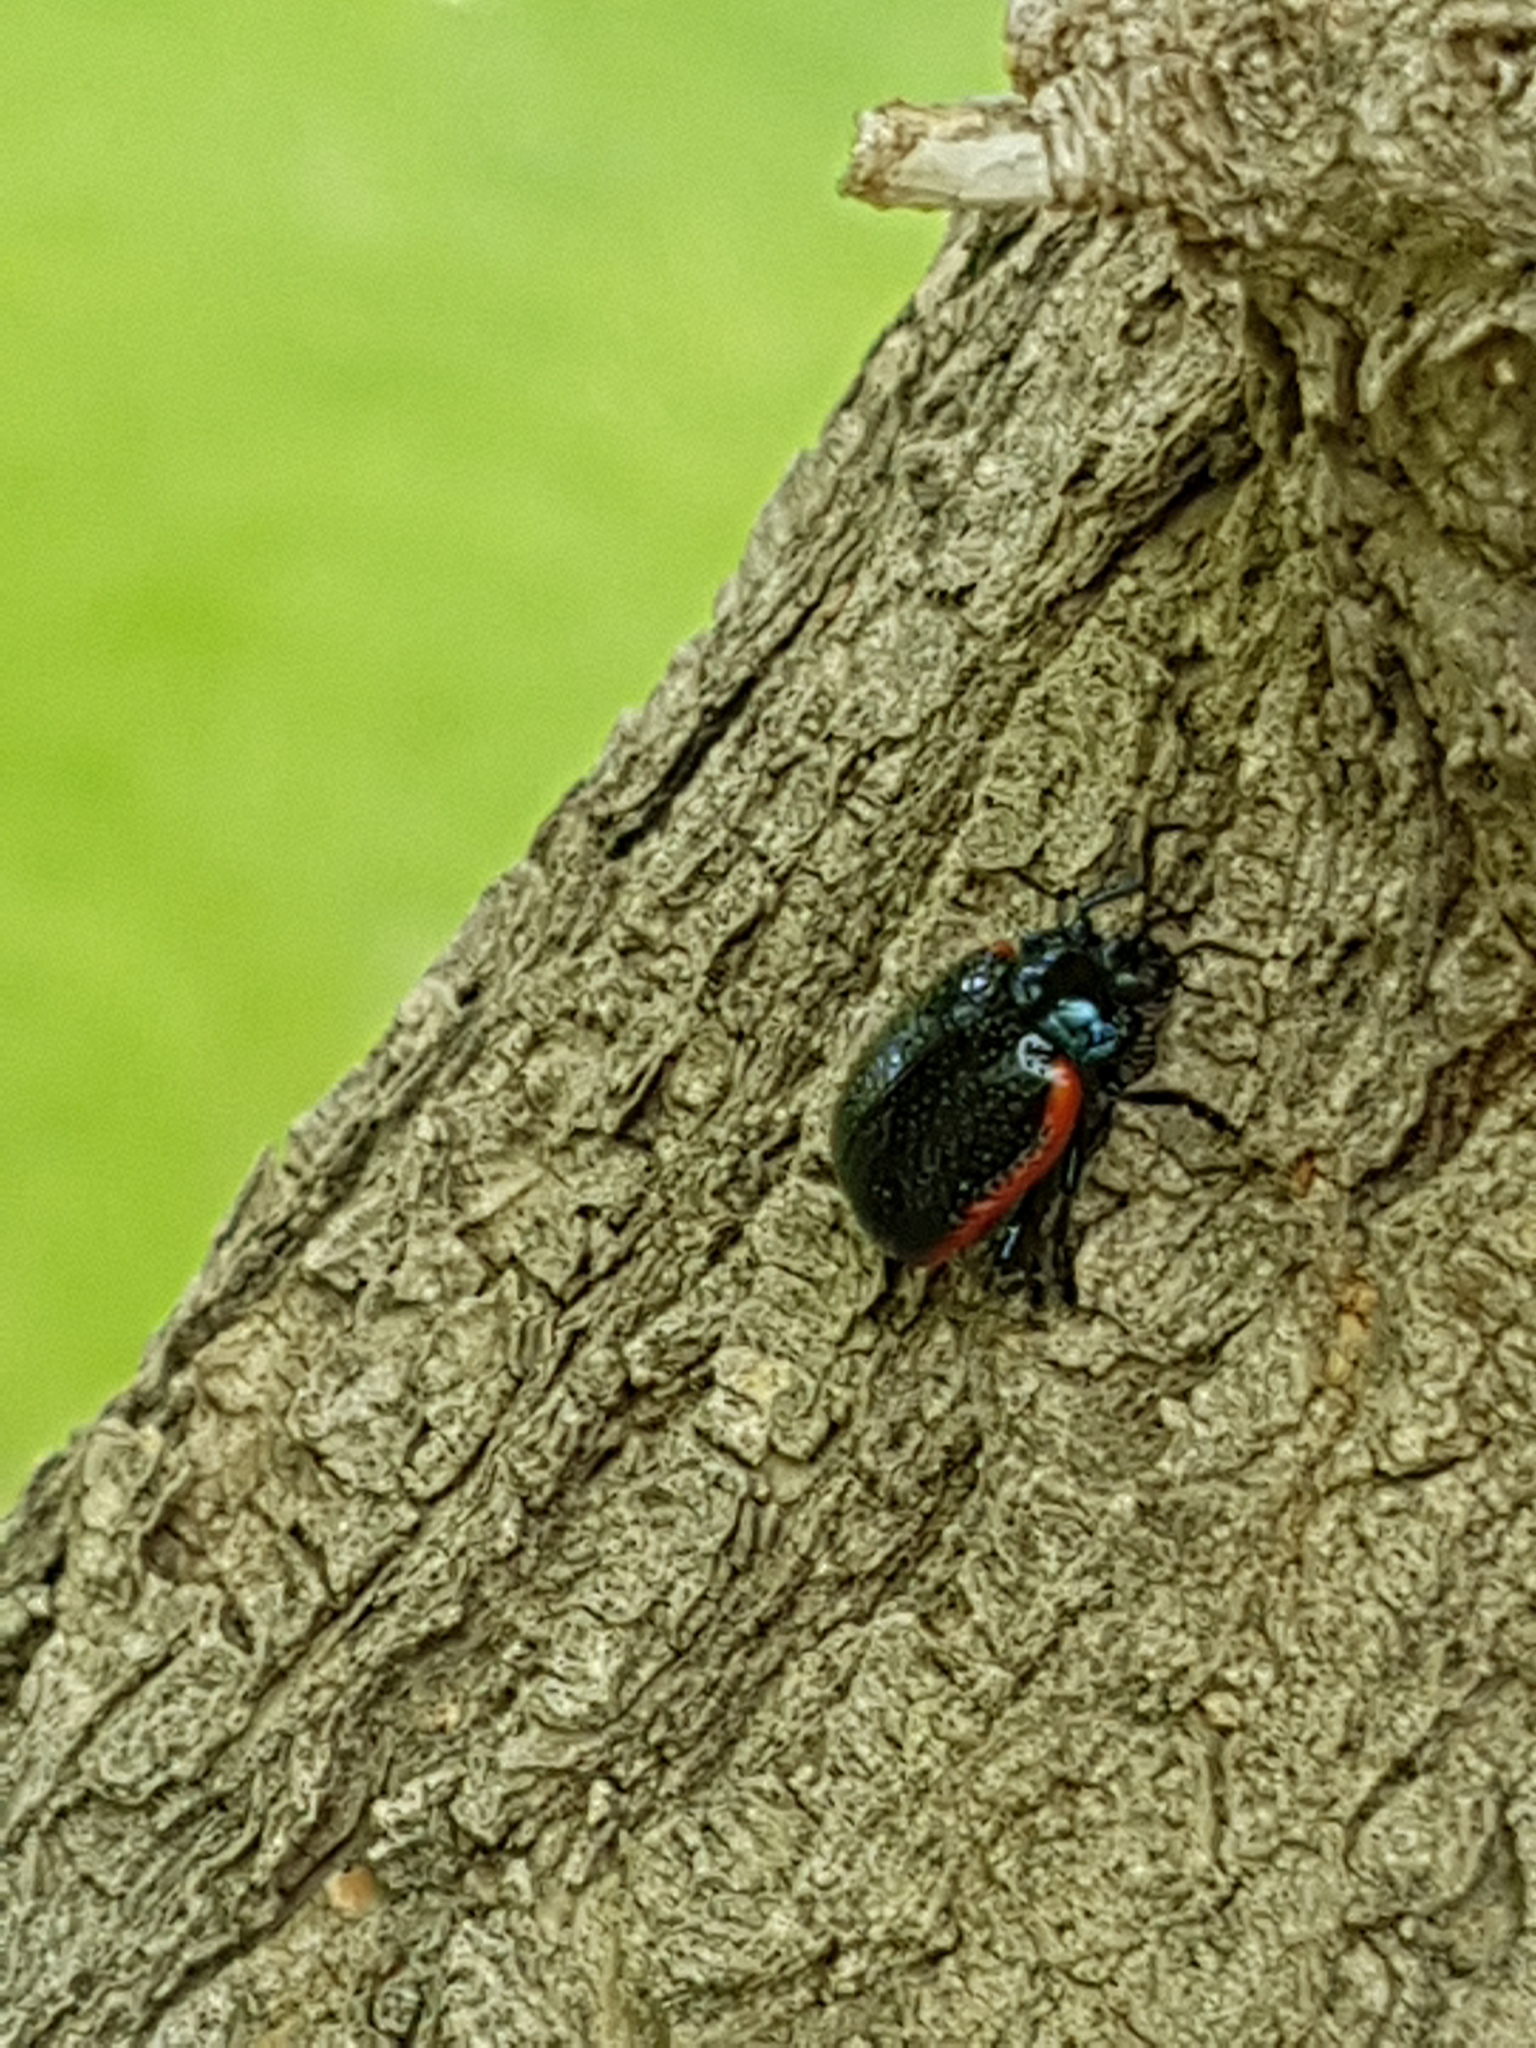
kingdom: Animalia
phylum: Arthropoda
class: Insecta
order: Coleoptera
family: Chrysomelidae
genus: Chrysolina
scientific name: Chrysolina gypsophilae
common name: Leaf beetle
